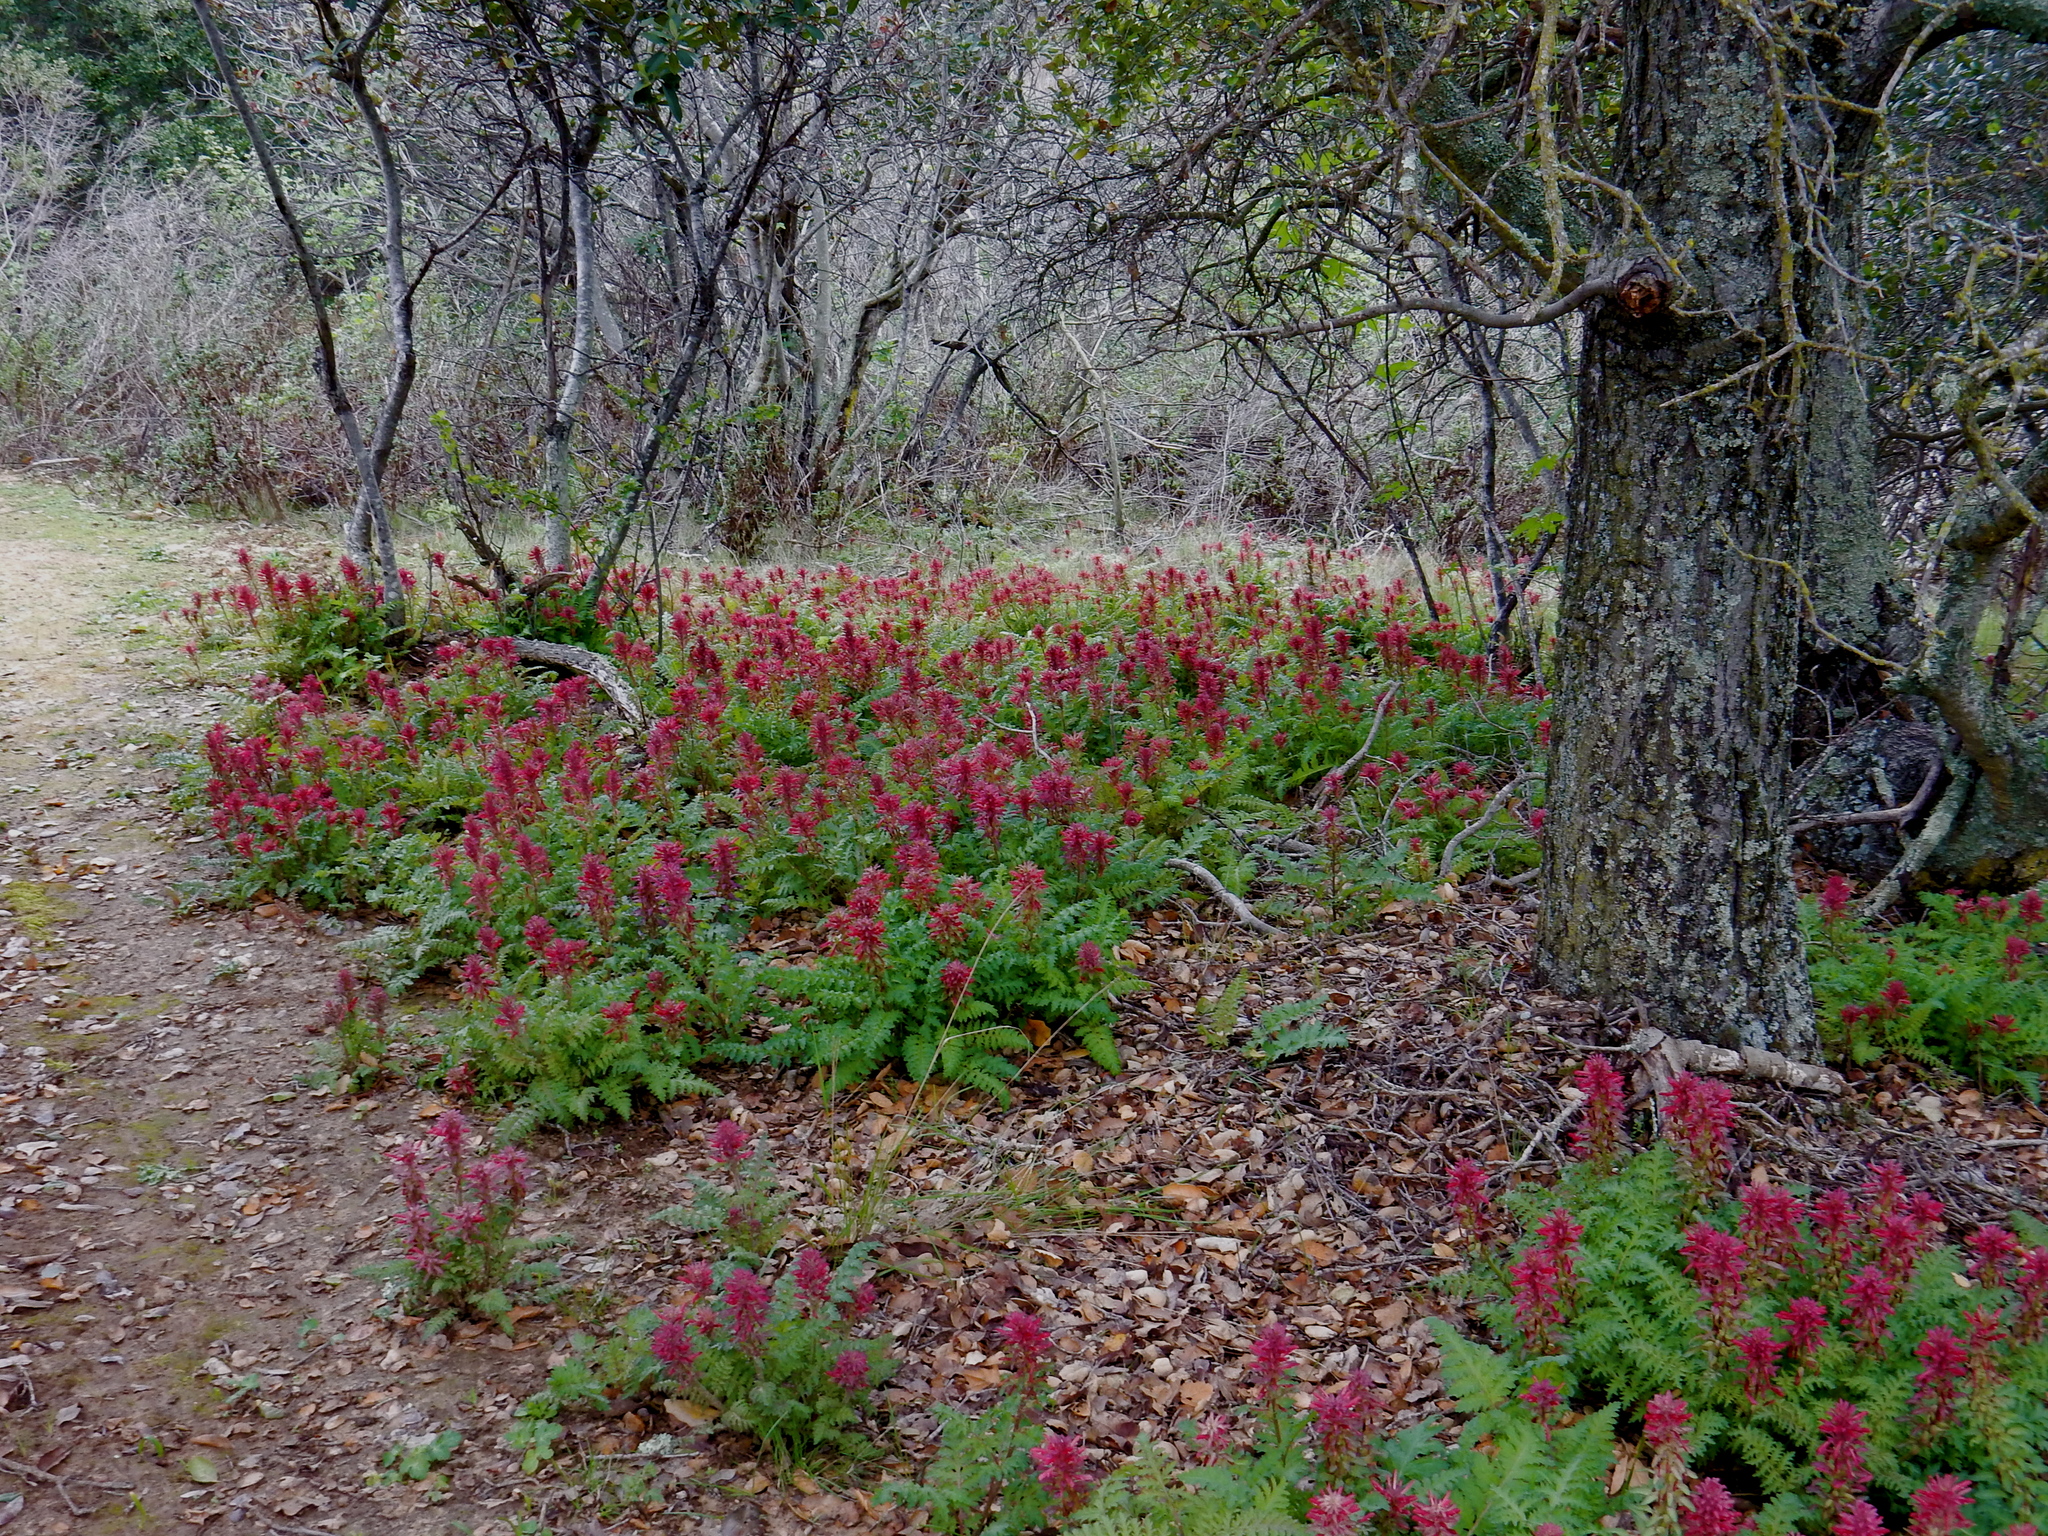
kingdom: Plantae
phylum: Tracheophyta
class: Magnoliopsida
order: Lamiales
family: Orobanchaceae
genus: Pedicularis
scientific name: Pedicularis densiflora
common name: Indian warrior
